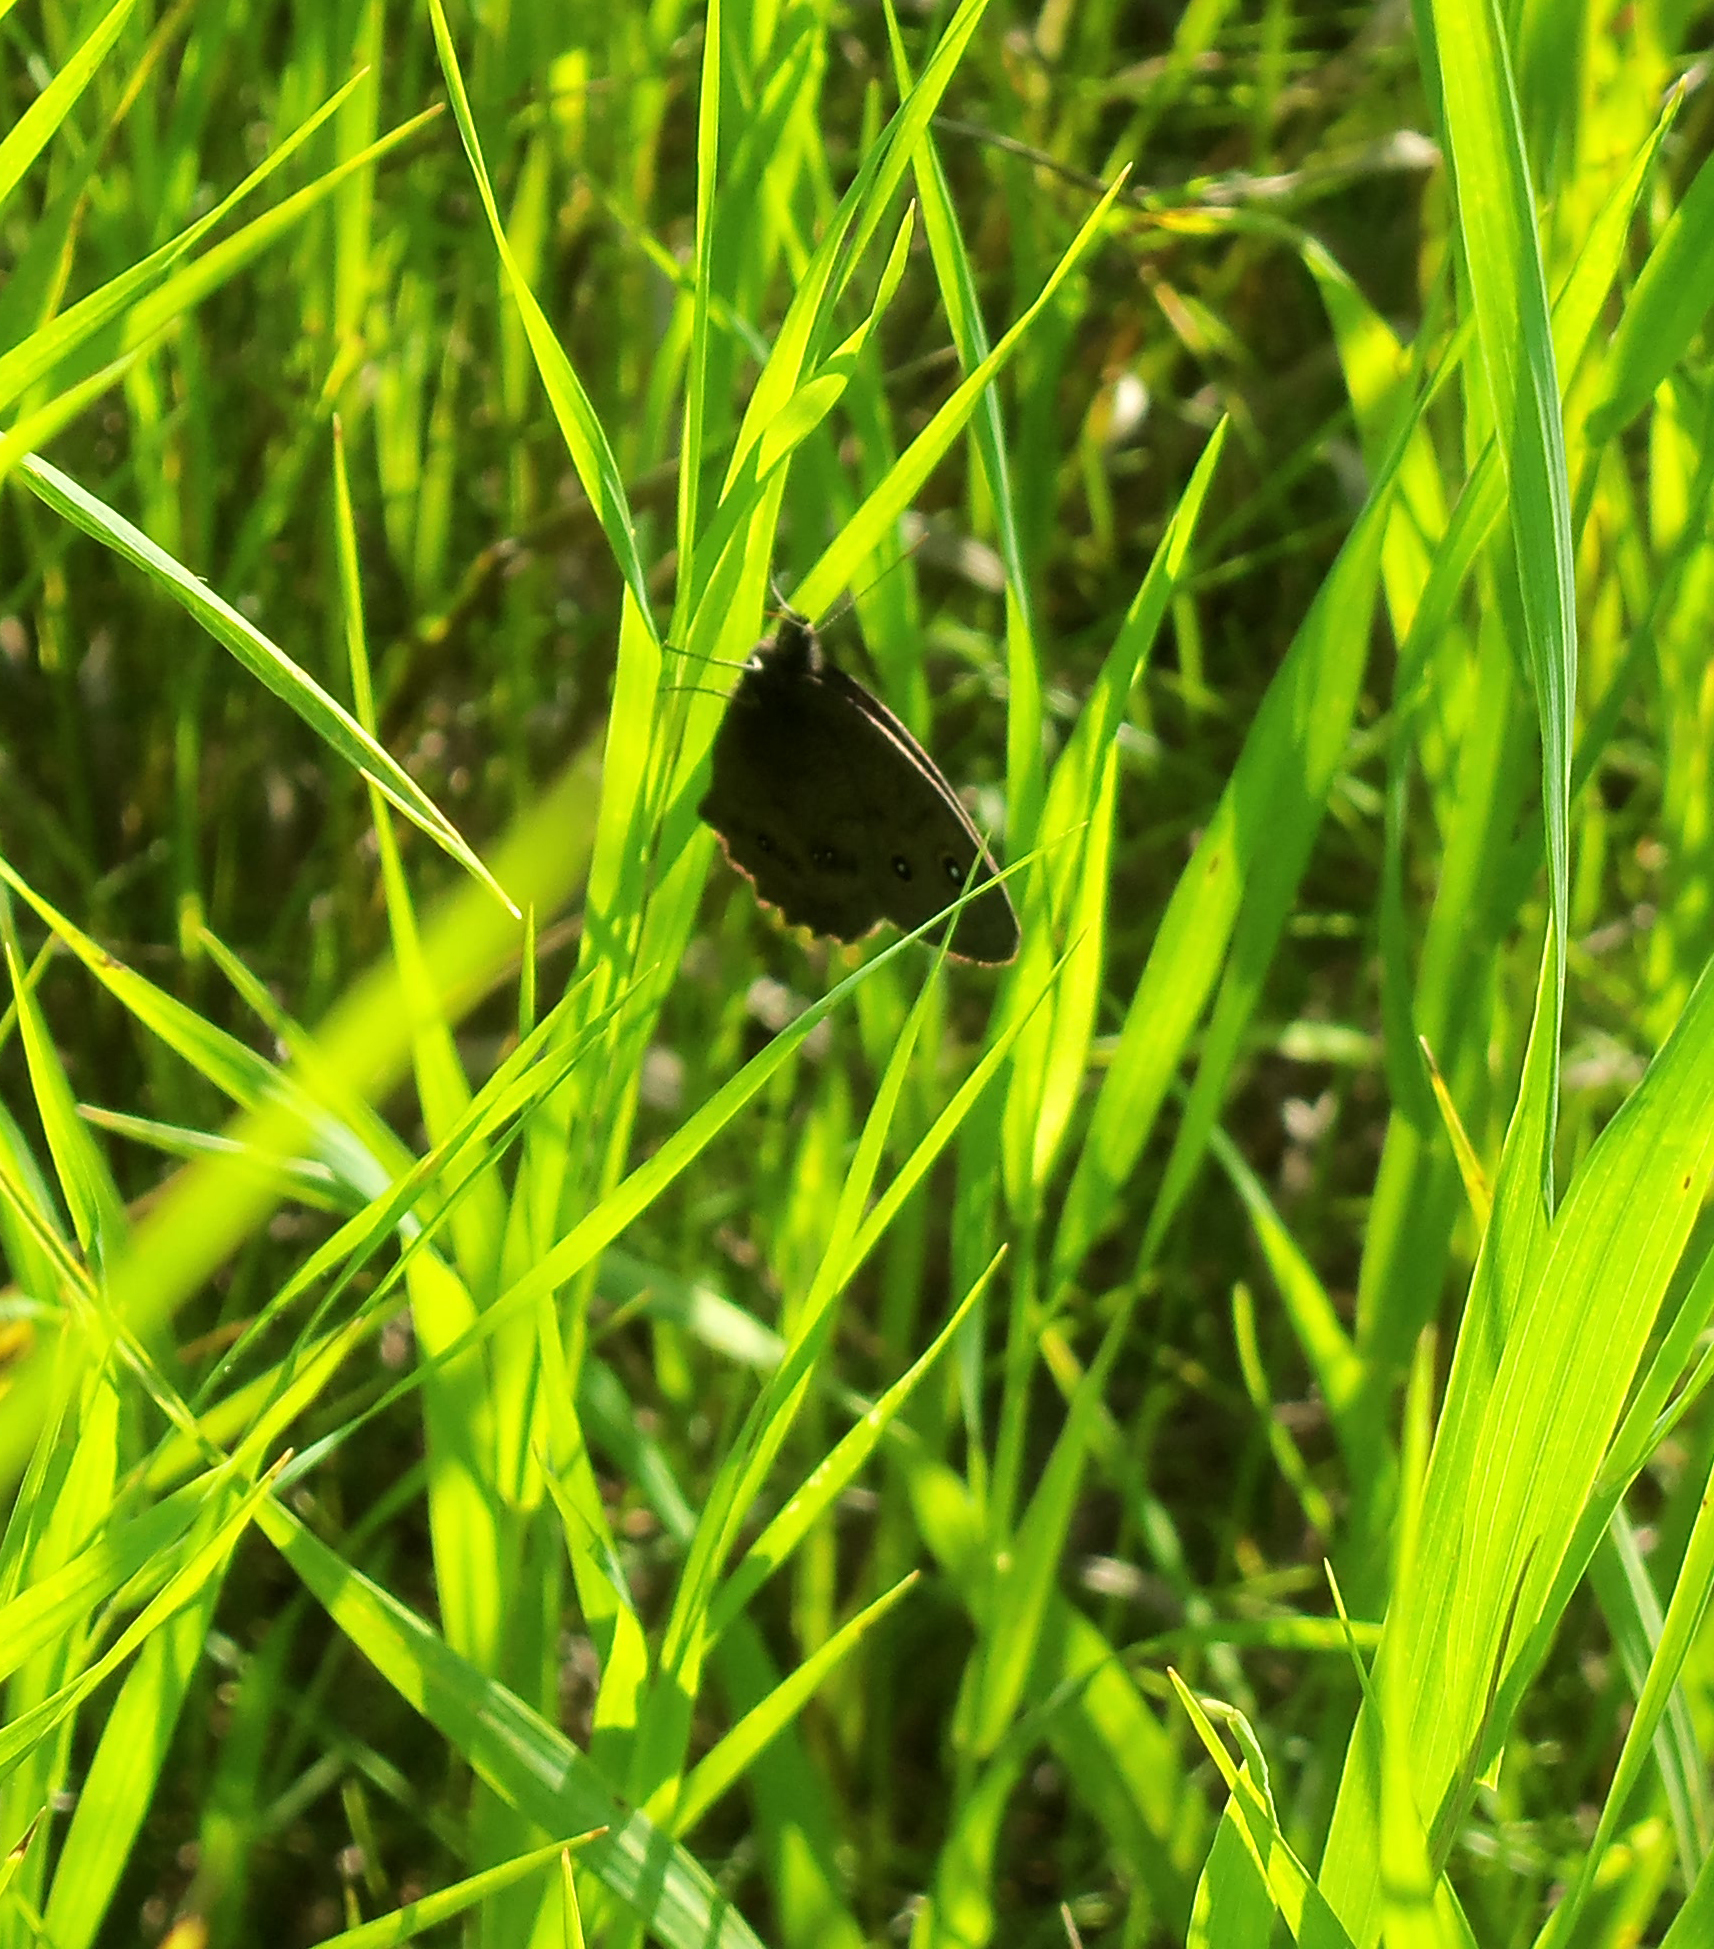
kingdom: Animalia
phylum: Arthropoda
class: Insecta
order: Lepidoptera
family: Nymphalidae
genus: Cercyonis
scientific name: Cercyonis pegala
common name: Common wood-nymph
